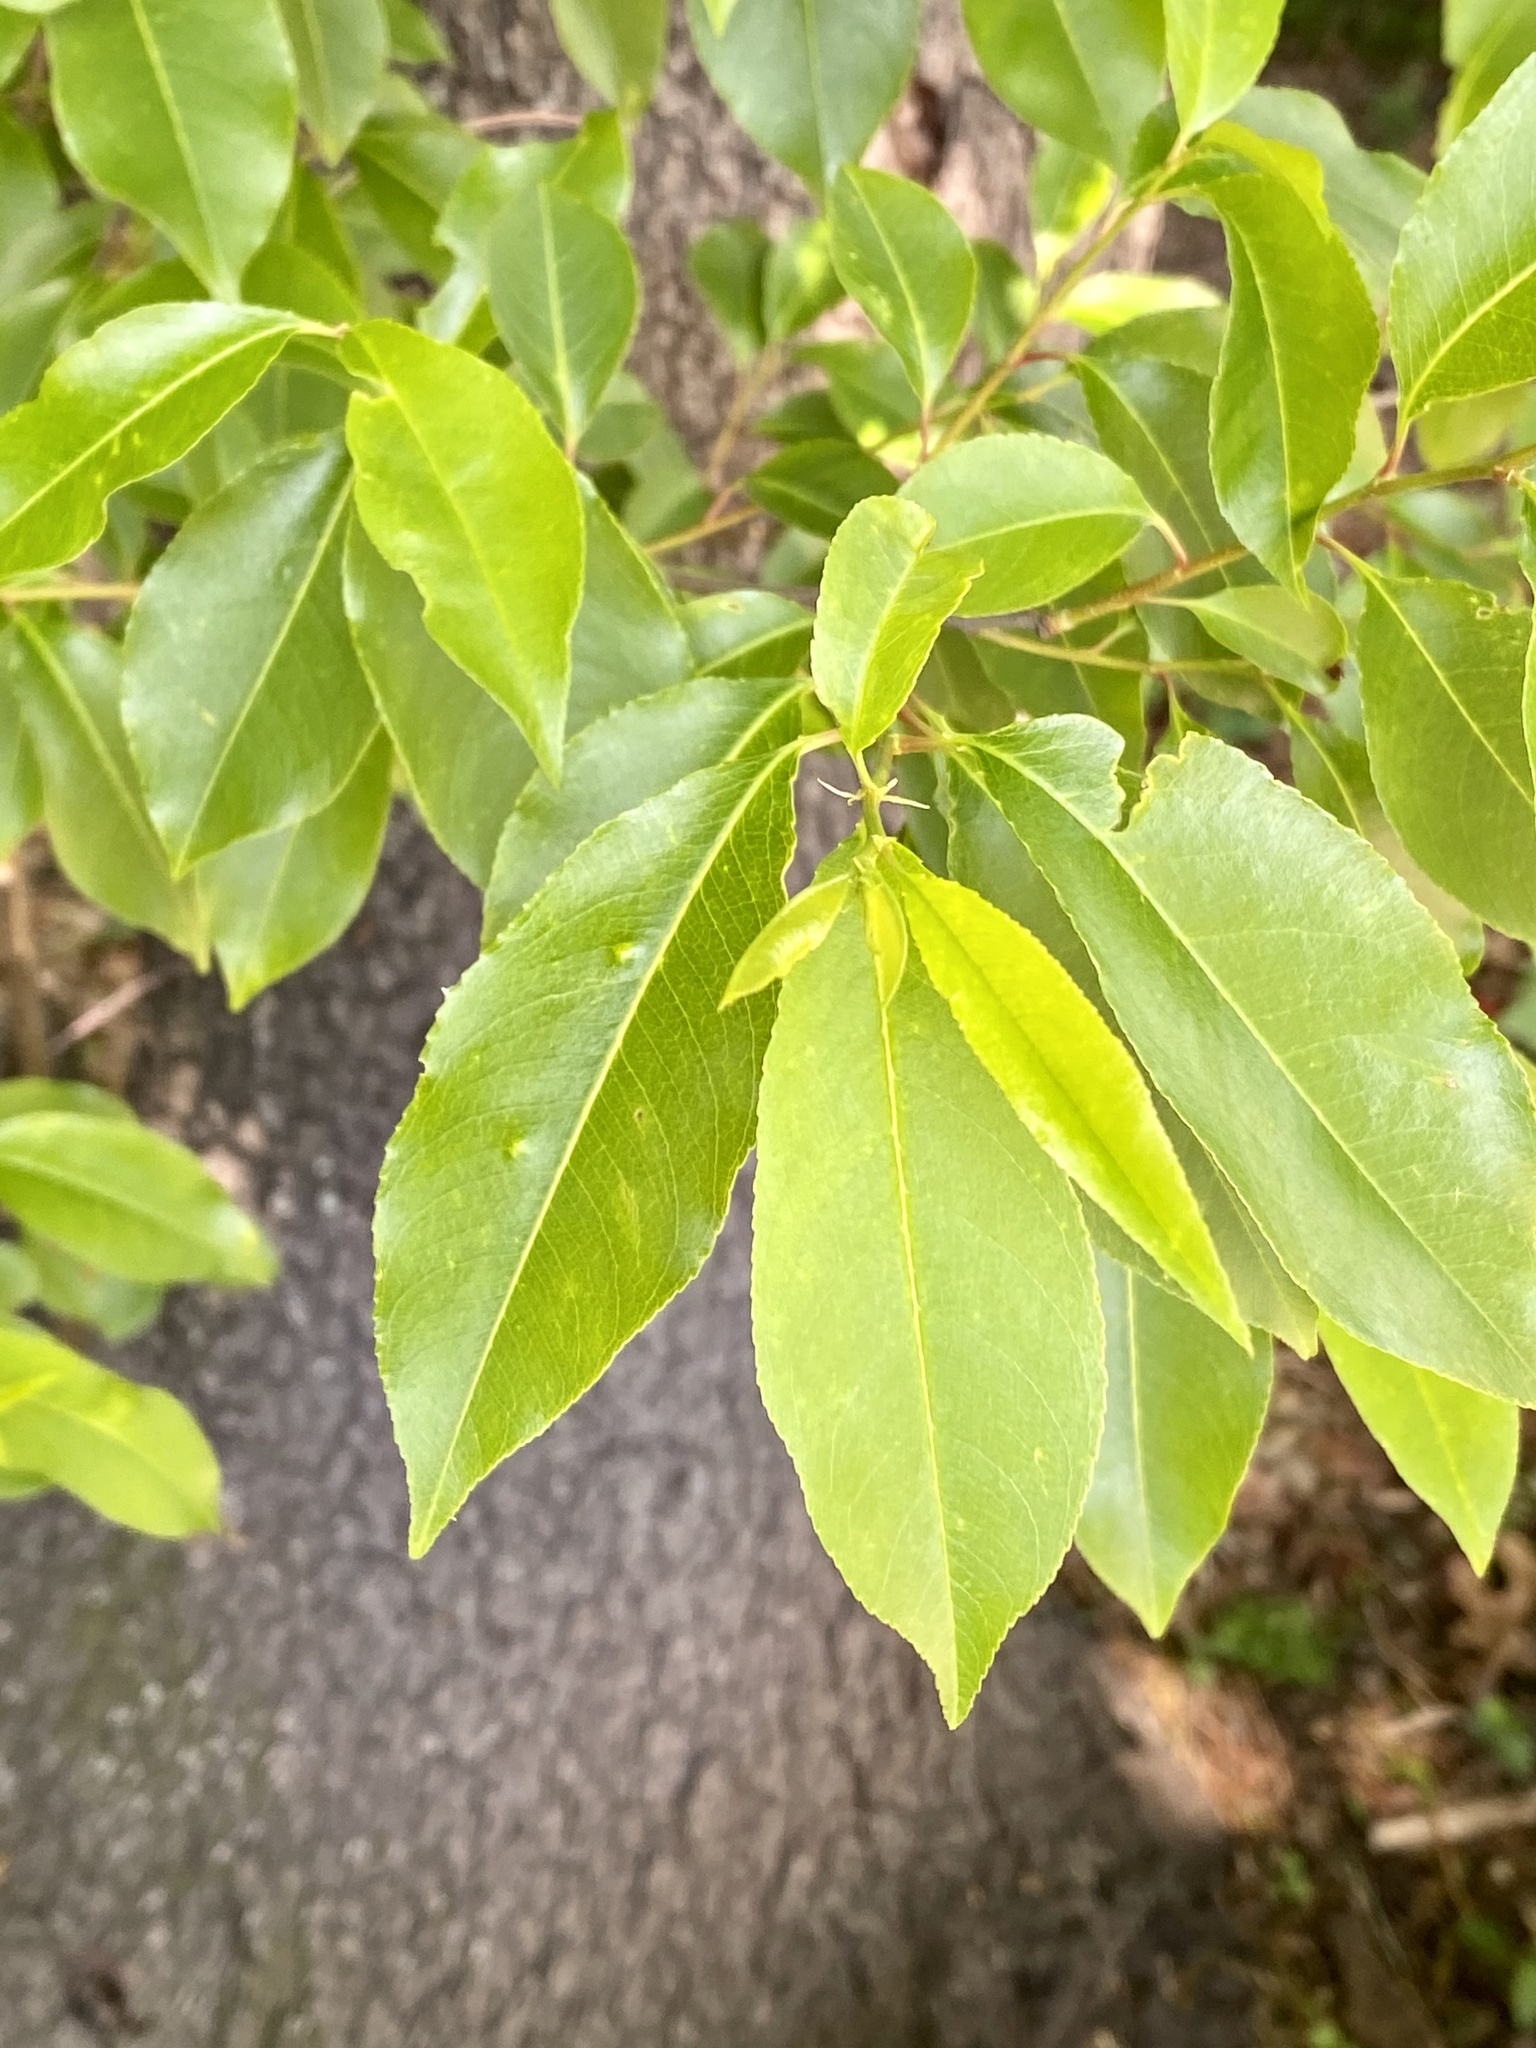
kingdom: Plantae
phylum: Tracheophyta
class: Magnoliopsida
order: Rosales
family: Rosaceae
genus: Prunus
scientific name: Prunus serotina
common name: Black cherry
